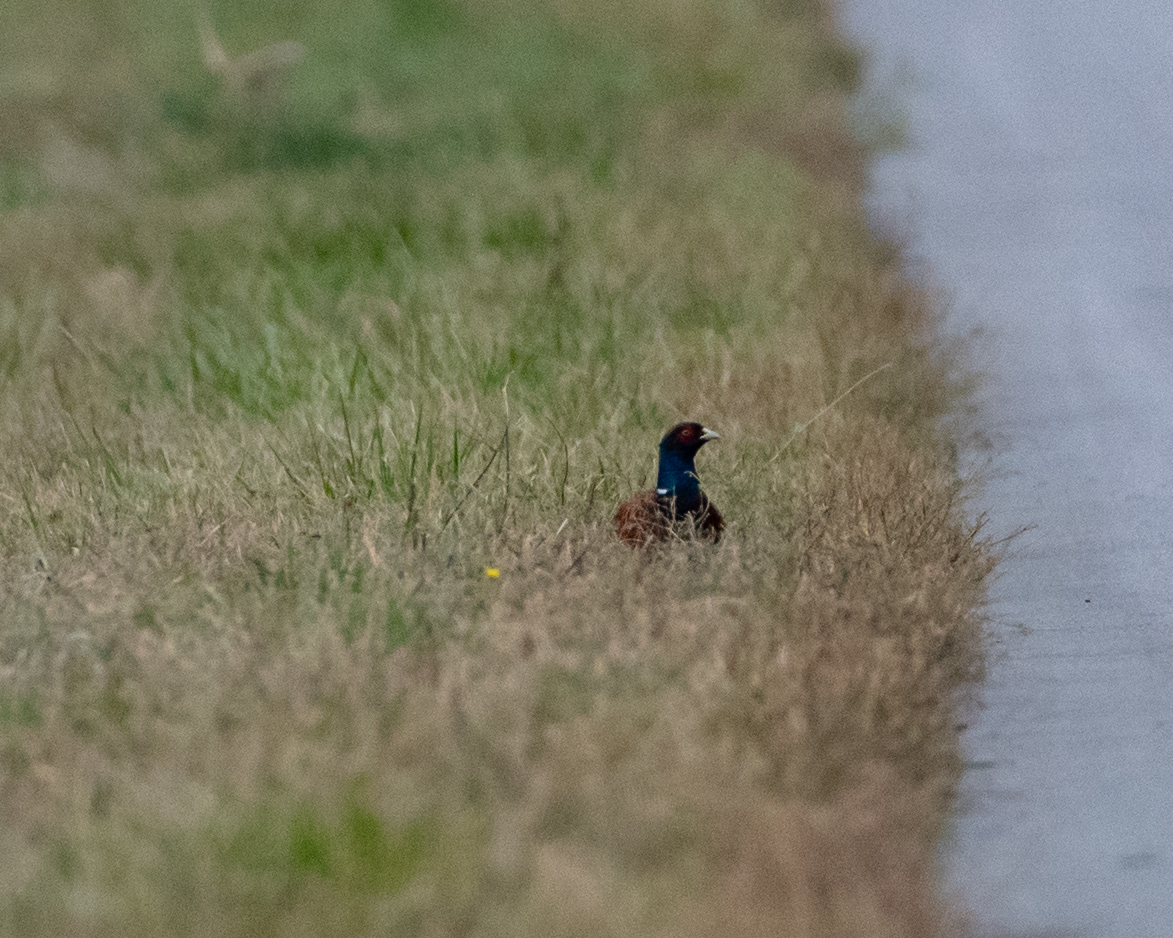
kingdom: Animalia
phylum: Chordata
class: Aves
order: Galliformes
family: Phasianidae
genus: Phasianus
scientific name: Phasianus colchicus
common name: Common pheasant
